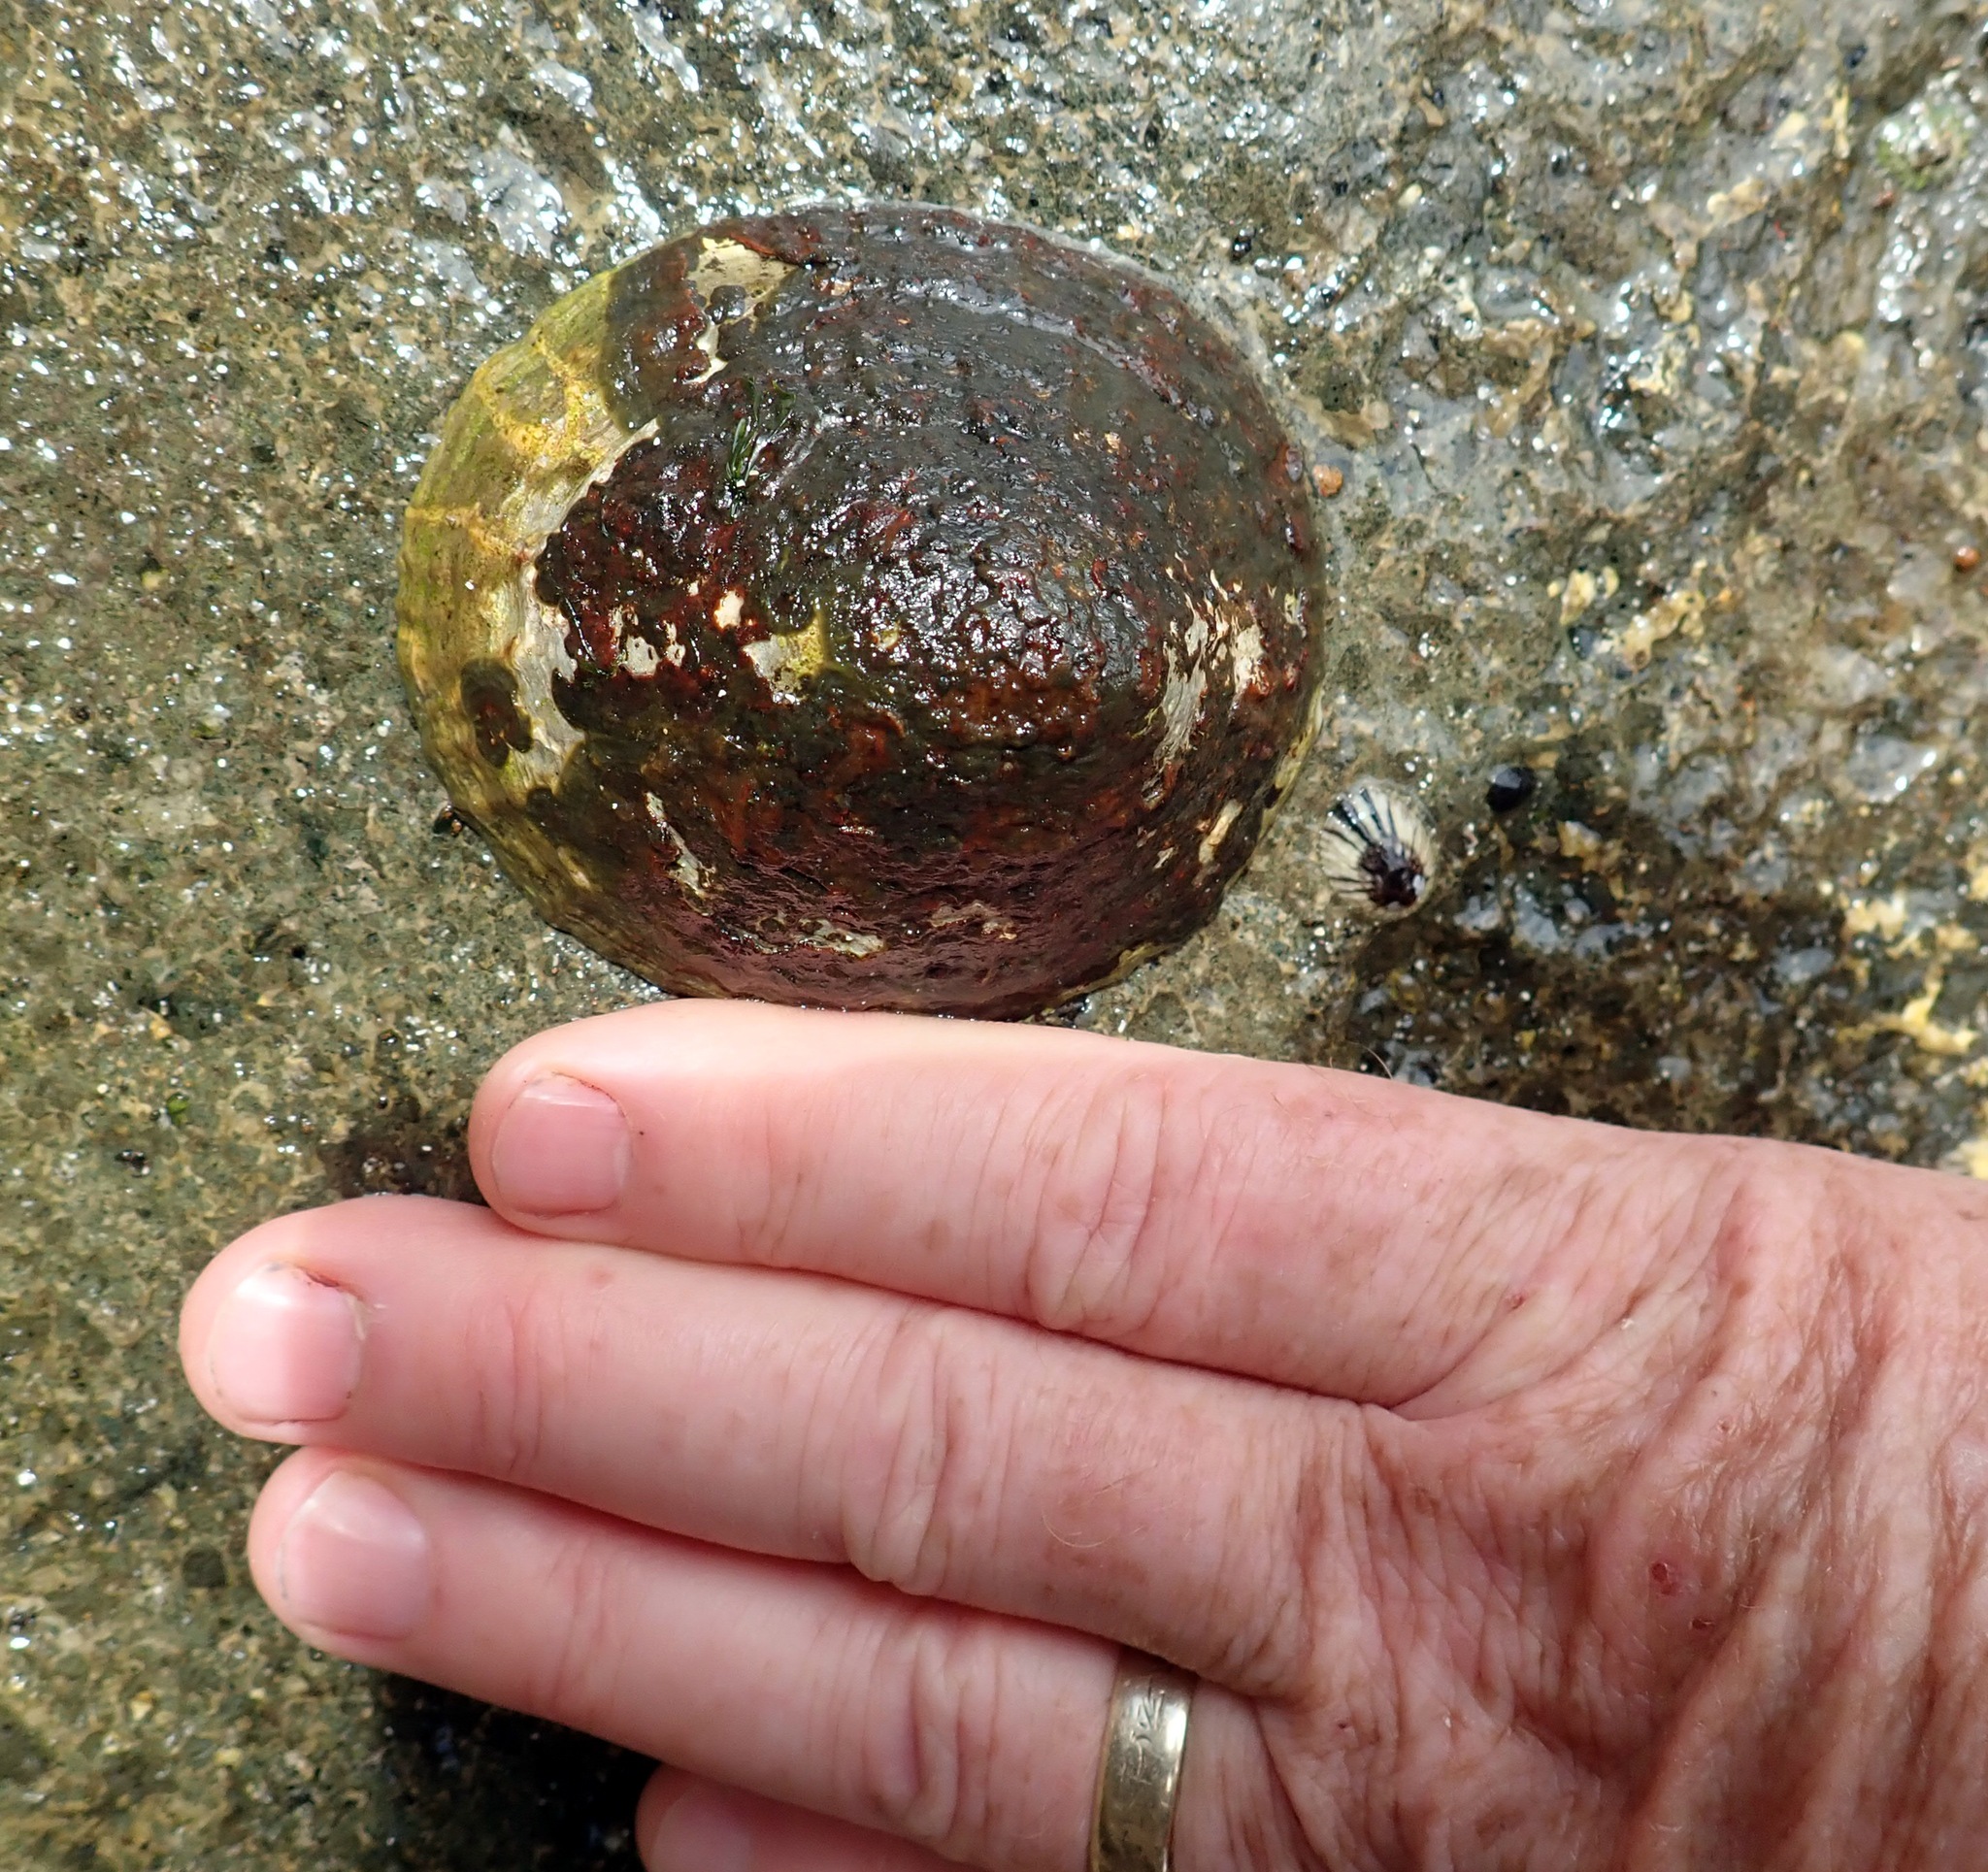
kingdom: Animalia
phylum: Mollusca
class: Gastropoda
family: Nacellidae
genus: Cellana
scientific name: Cellana oliveri
